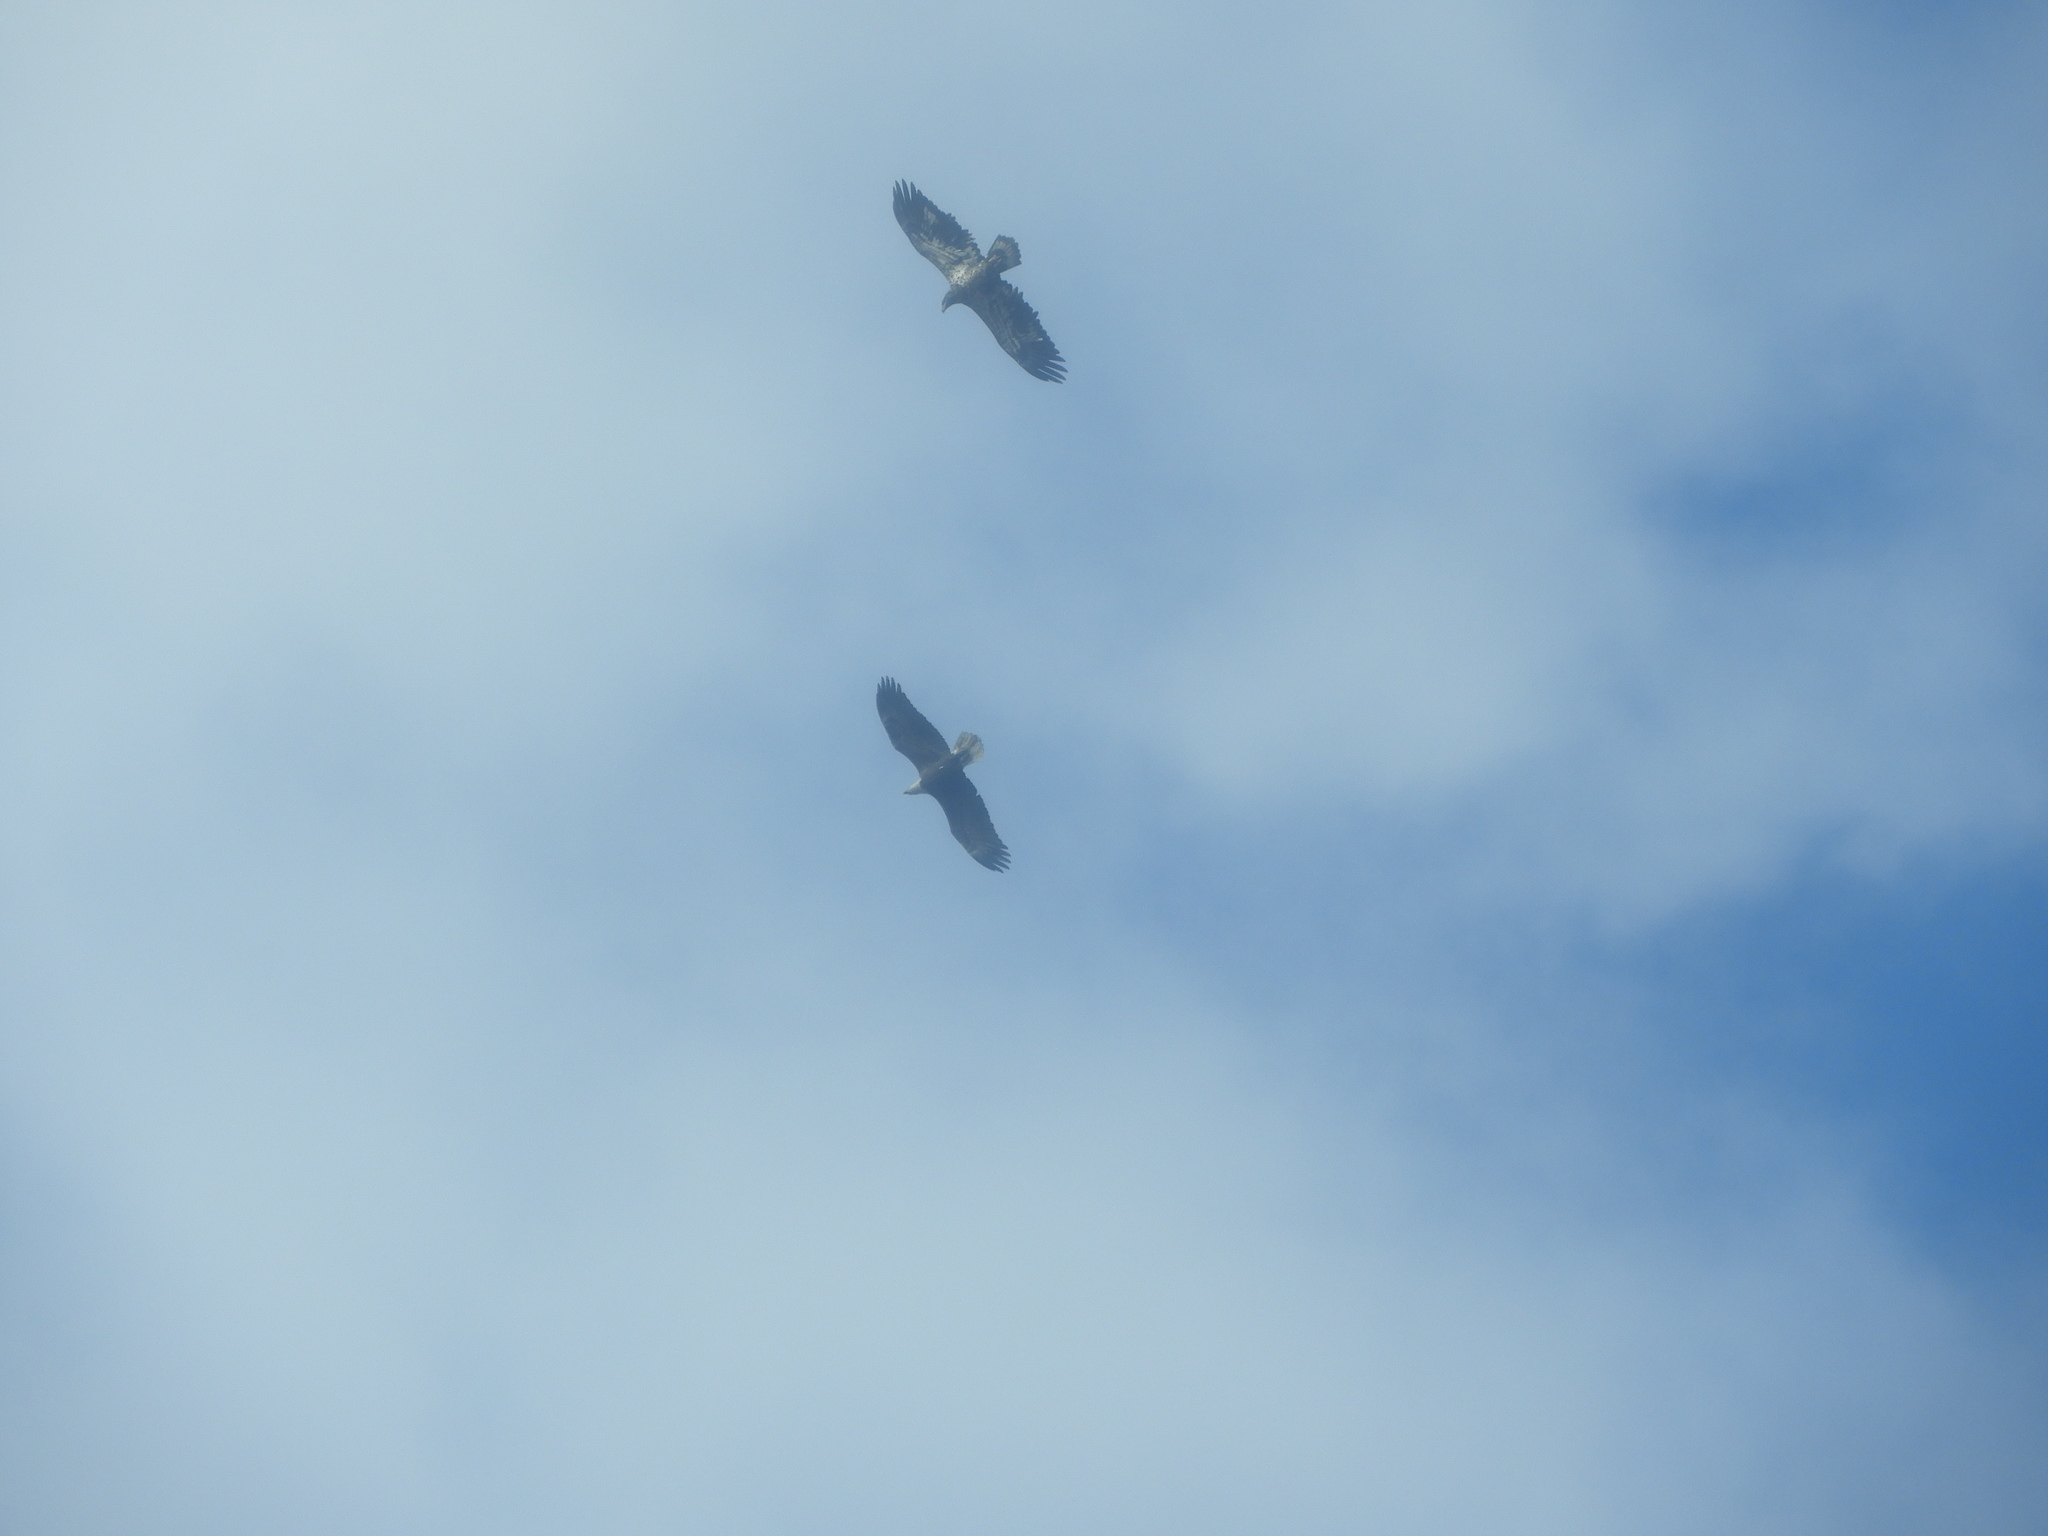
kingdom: Animalia
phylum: Chordata
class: Aves
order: Accipitriformes
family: Accipitridae
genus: Haliaeetus
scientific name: Haliaeetus leucocephalus
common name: Bald eagle
